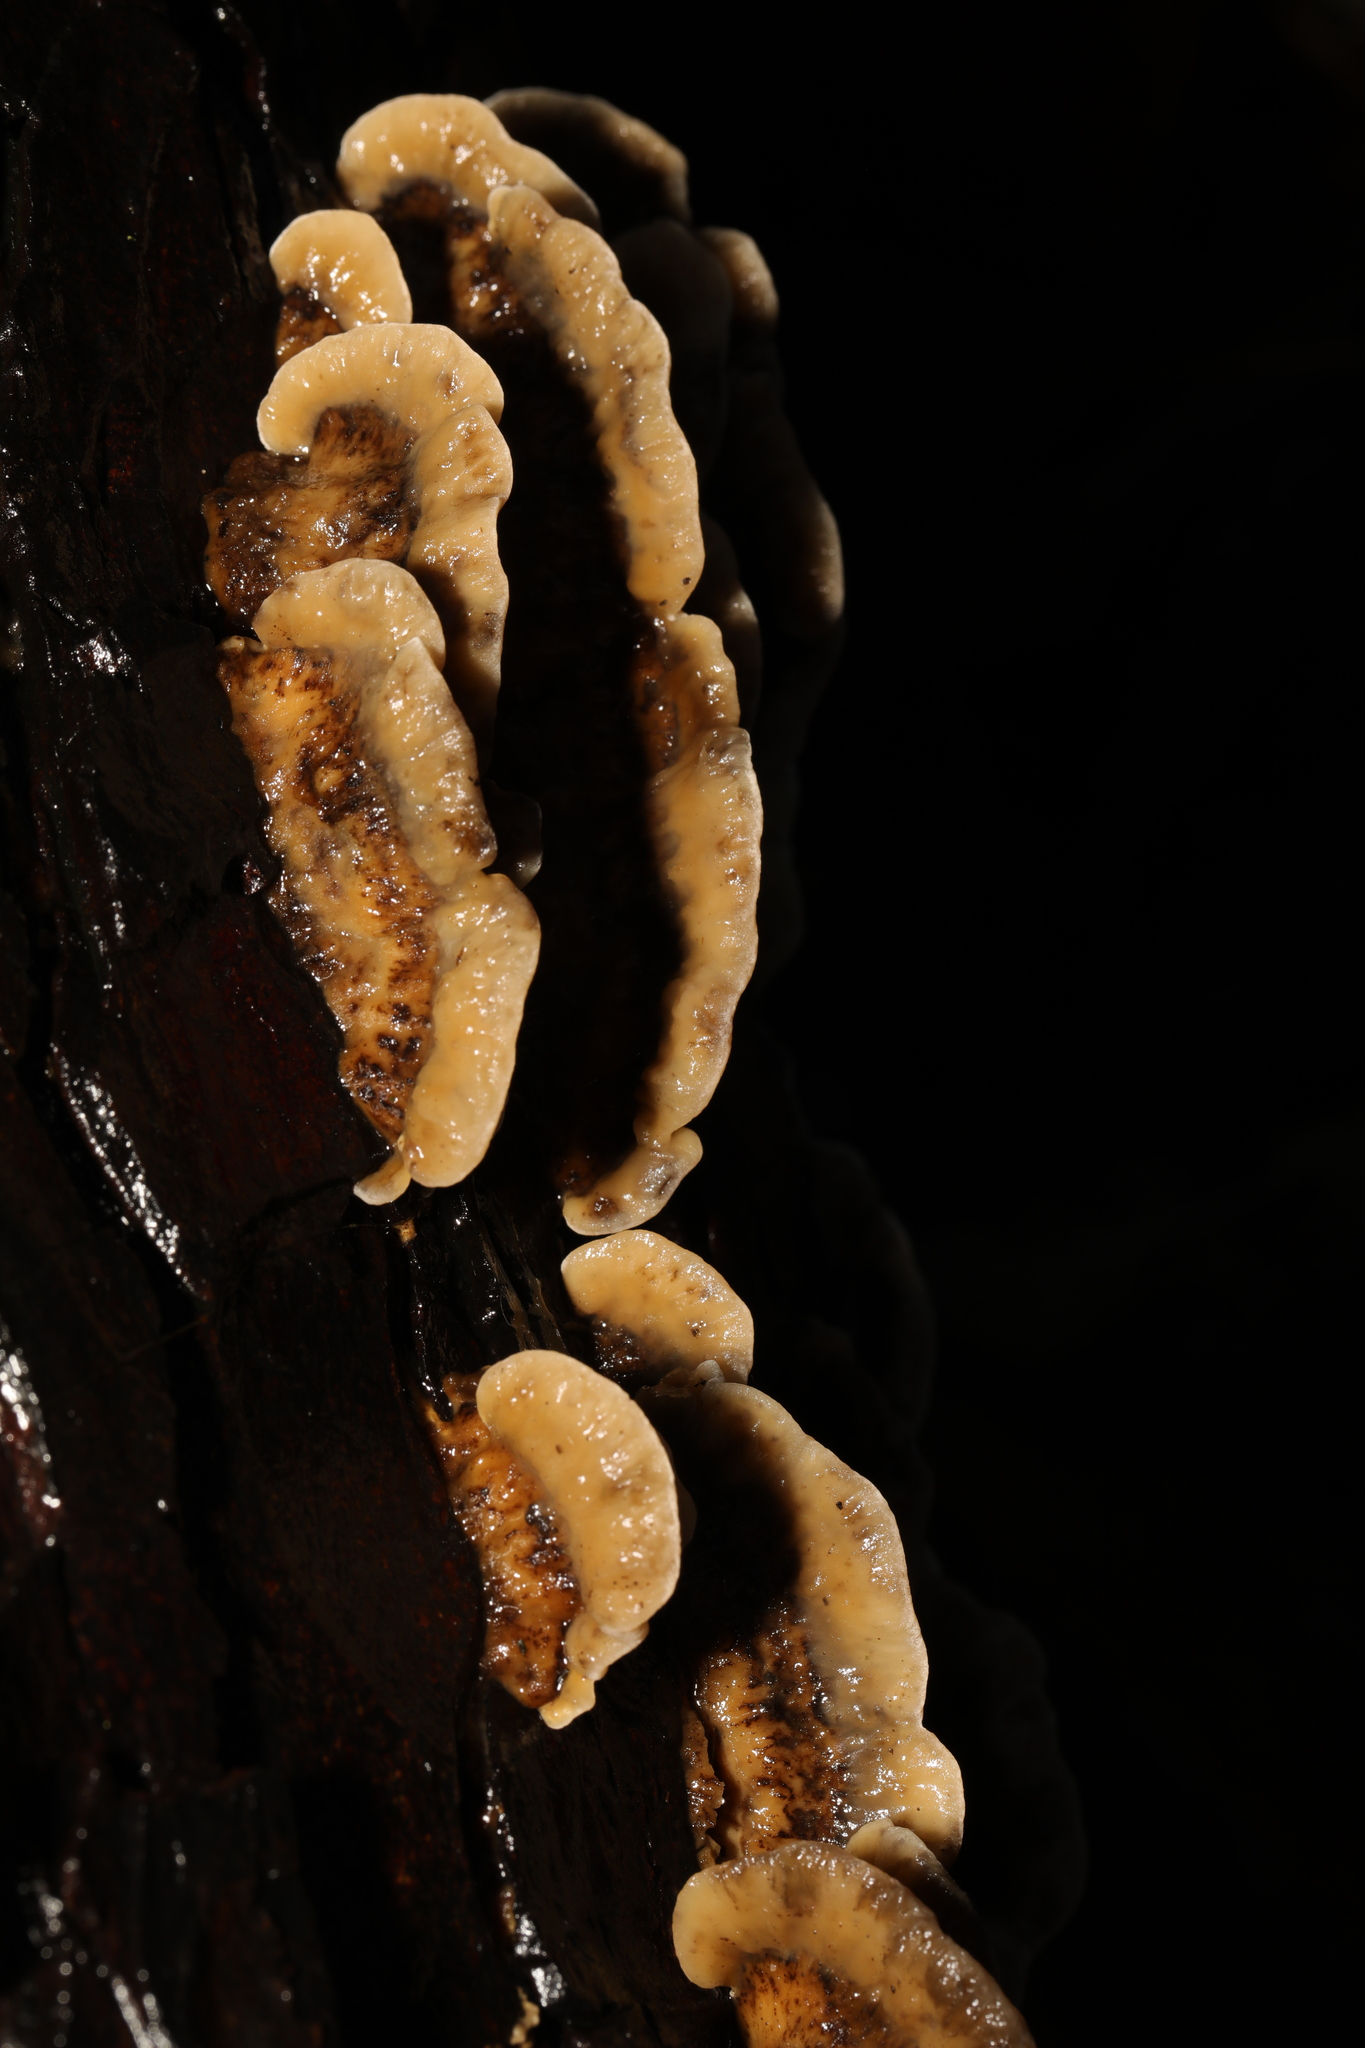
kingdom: Fungi
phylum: Basidiomycota
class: Agaricomycetes
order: Polyporales
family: Phanerochaetaceae
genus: Bjerkandera
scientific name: Bjerkandera adusta
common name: Smoky bracket
